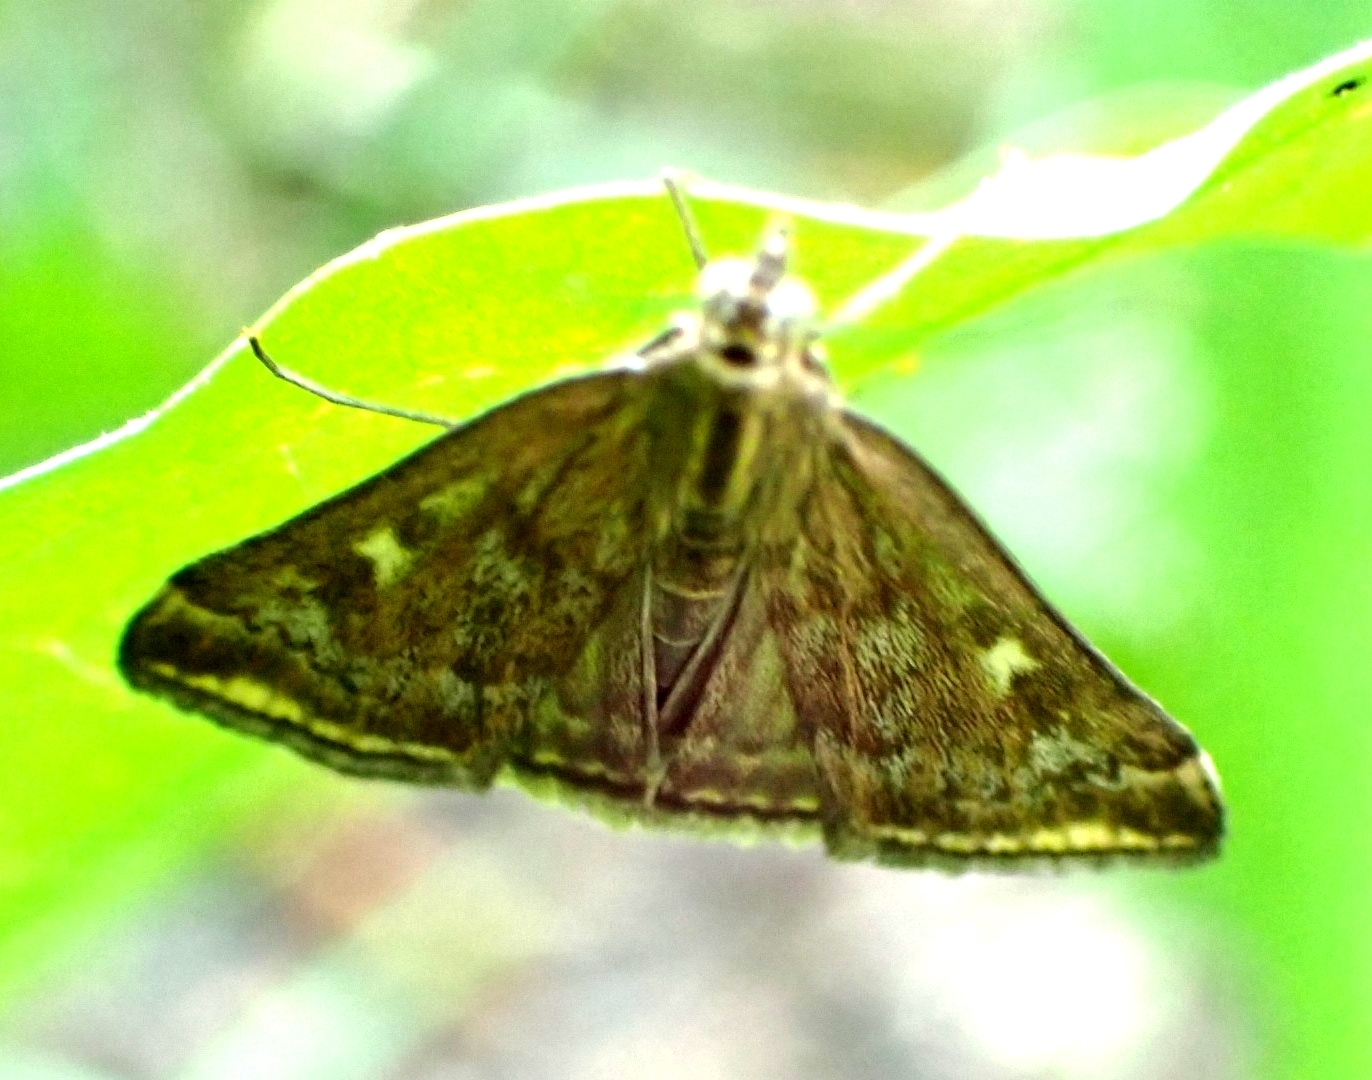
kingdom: Animalia
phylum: Arthropoda
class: Insecta
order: Lepidoptera
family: Crambidae
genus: Loxostege
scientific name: Loxostege sticticalis
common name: Crambid moth
